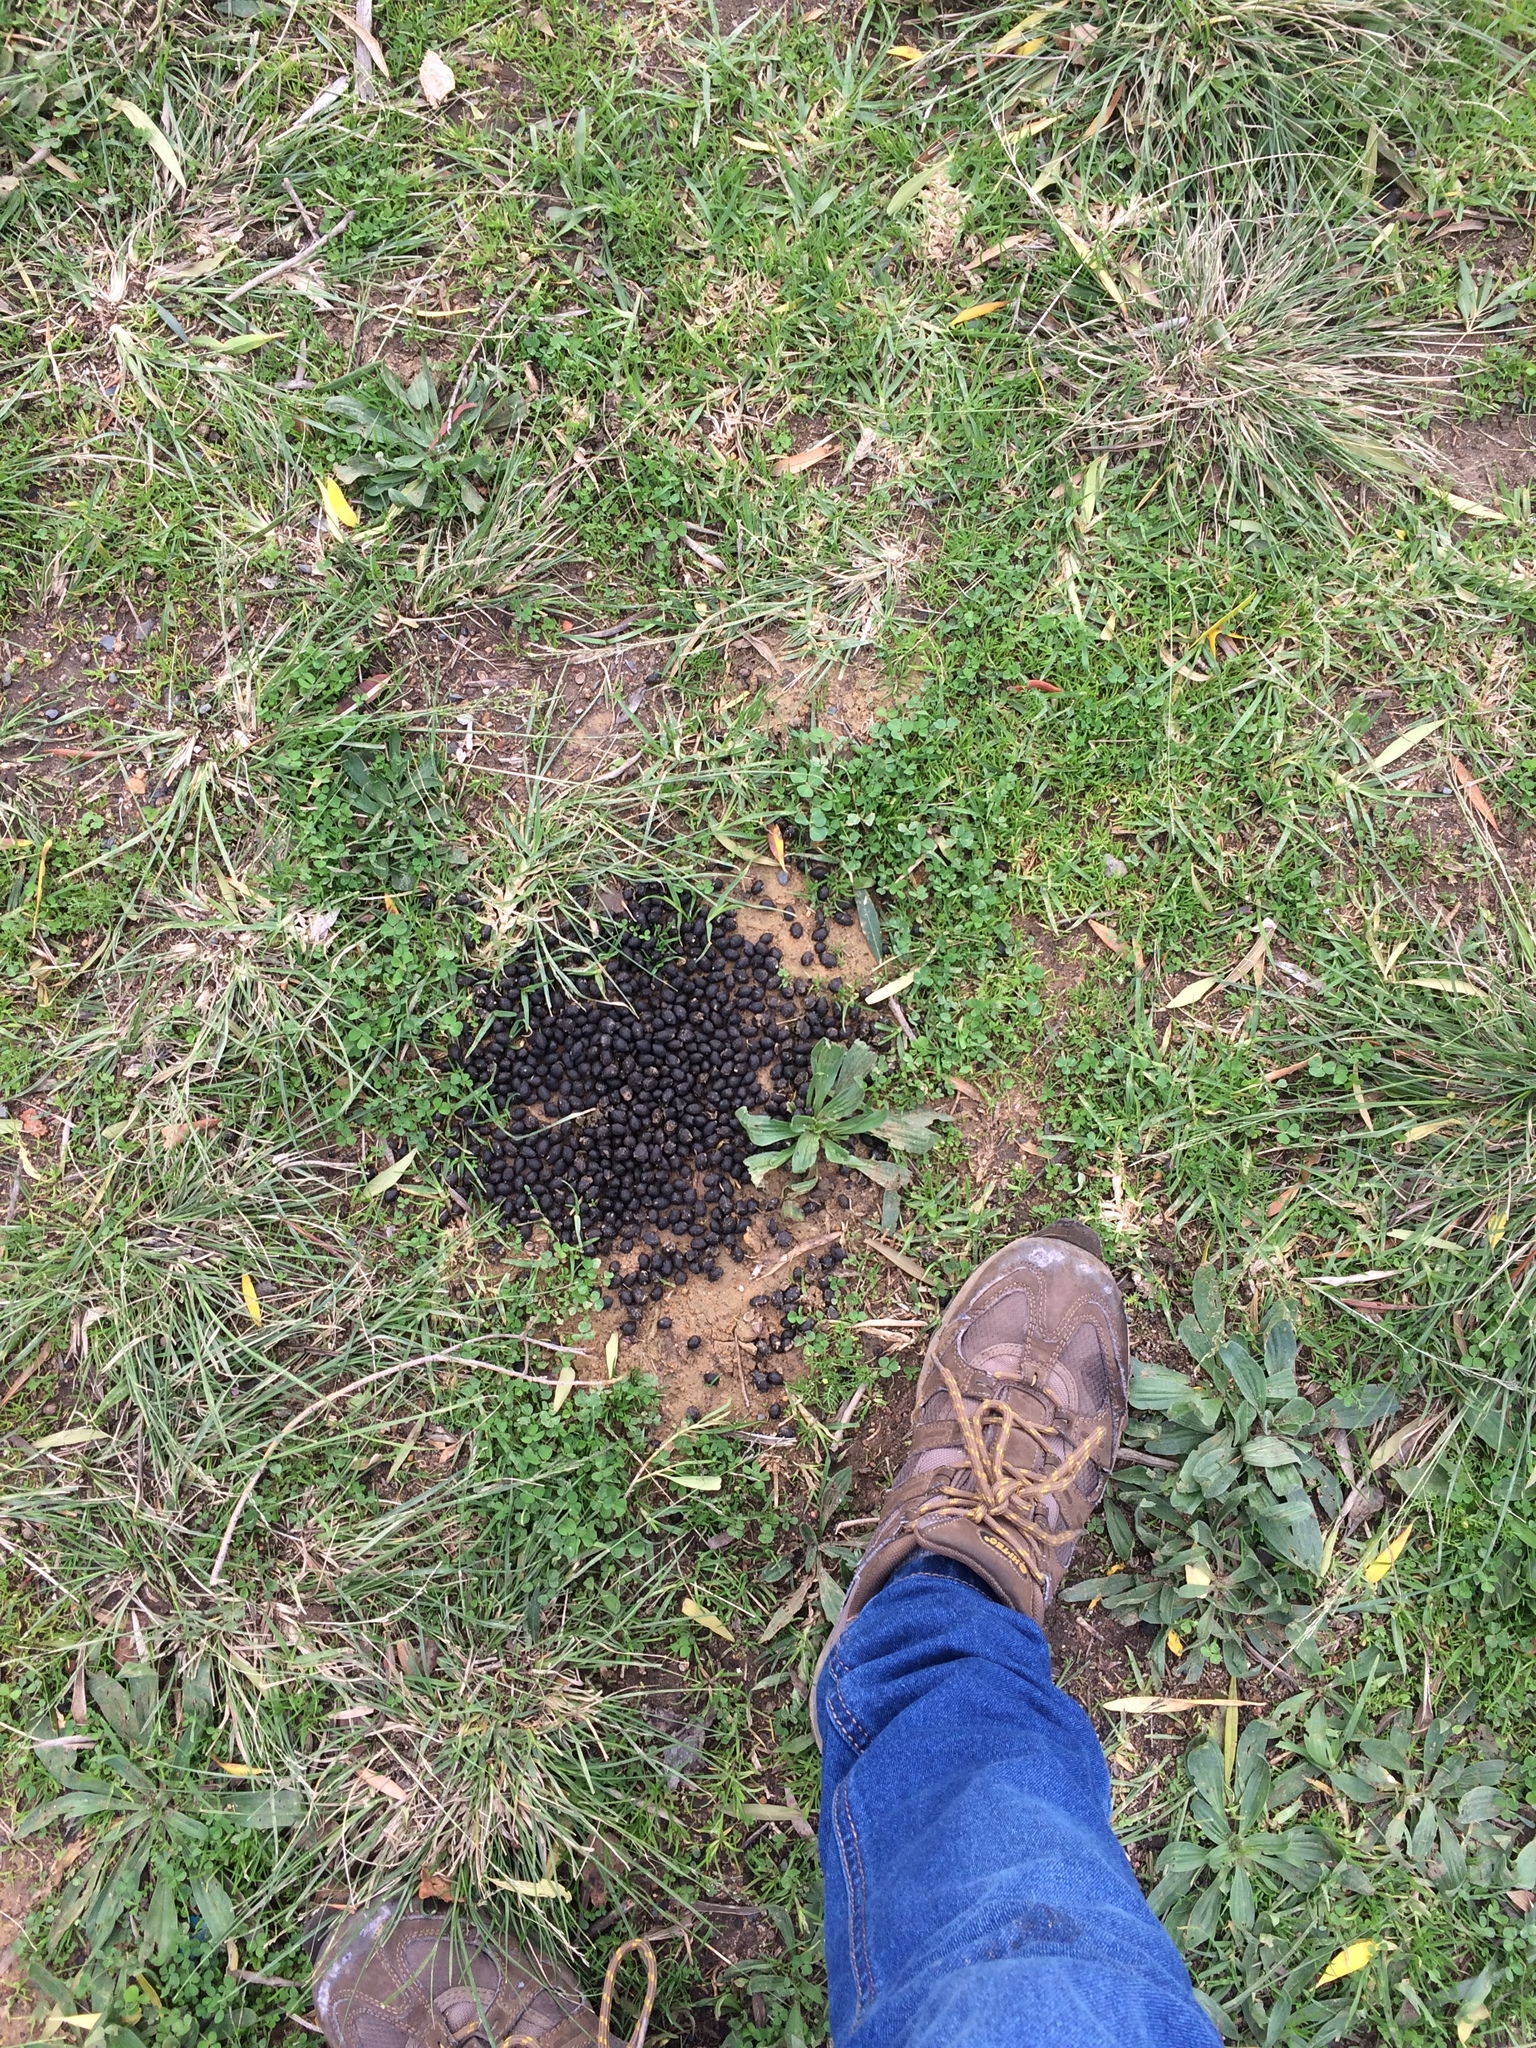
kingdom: Animalia
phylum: Chordata
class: Mammalia
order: Artiodactyla
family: Bovidae
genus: Sylvicapra
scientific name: Sylvicapra grimmia
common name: Bush duiker
